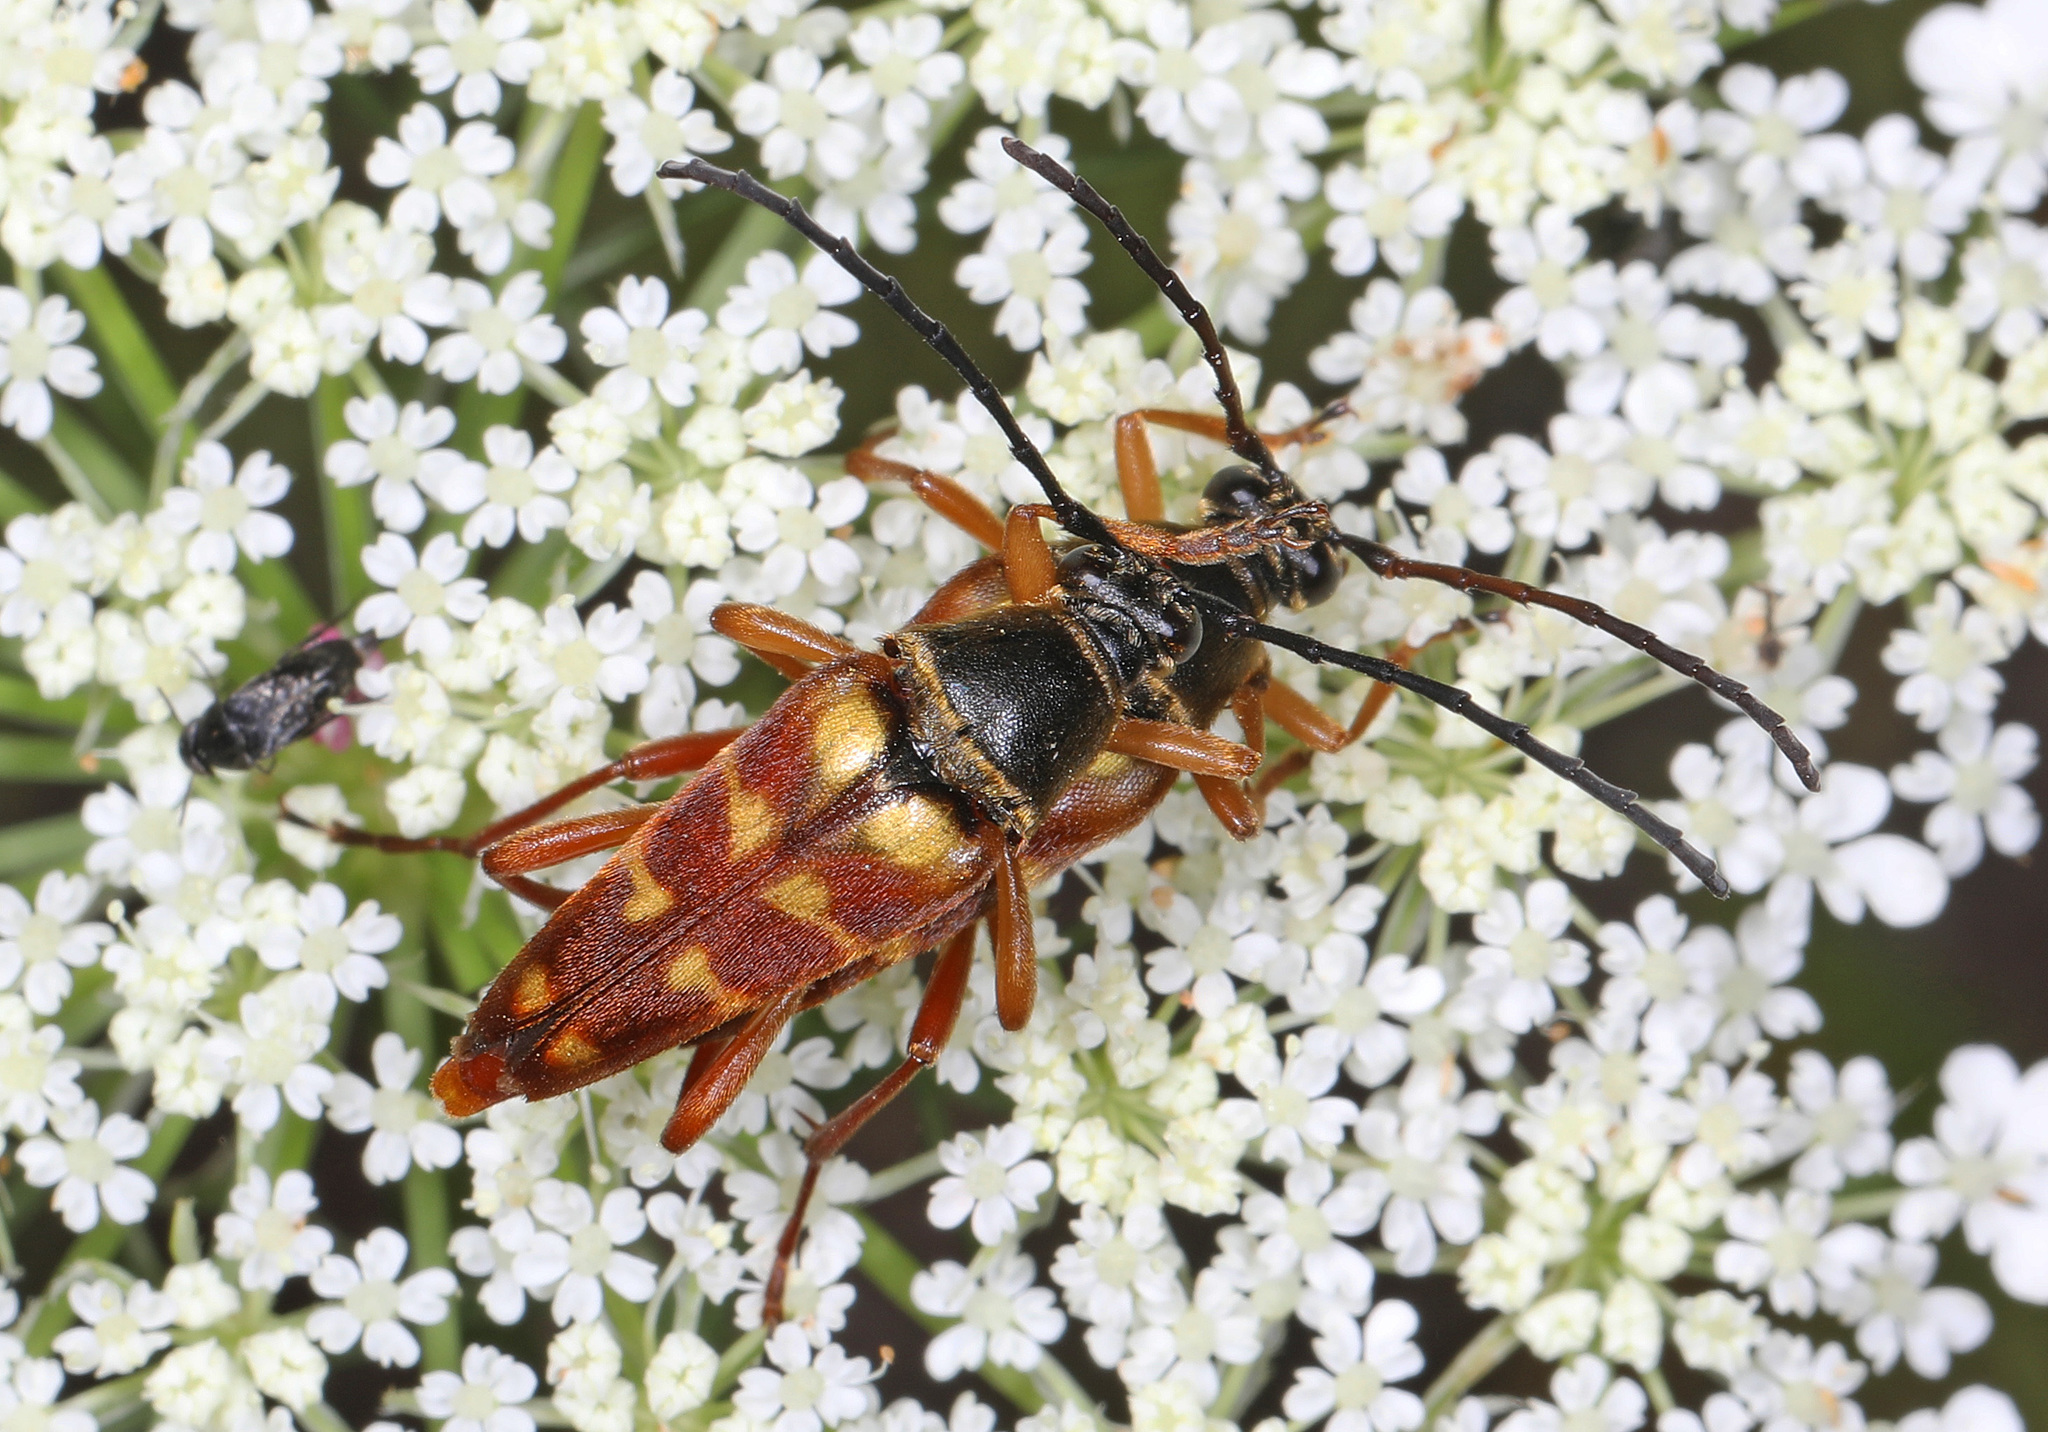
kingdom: Animalia
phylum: Arthropoda
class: Insecta
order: Coleoptera
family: Cerambycidae
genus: Typocerus
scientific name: Typocerus velutinus
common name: Banded longhorn beetle
